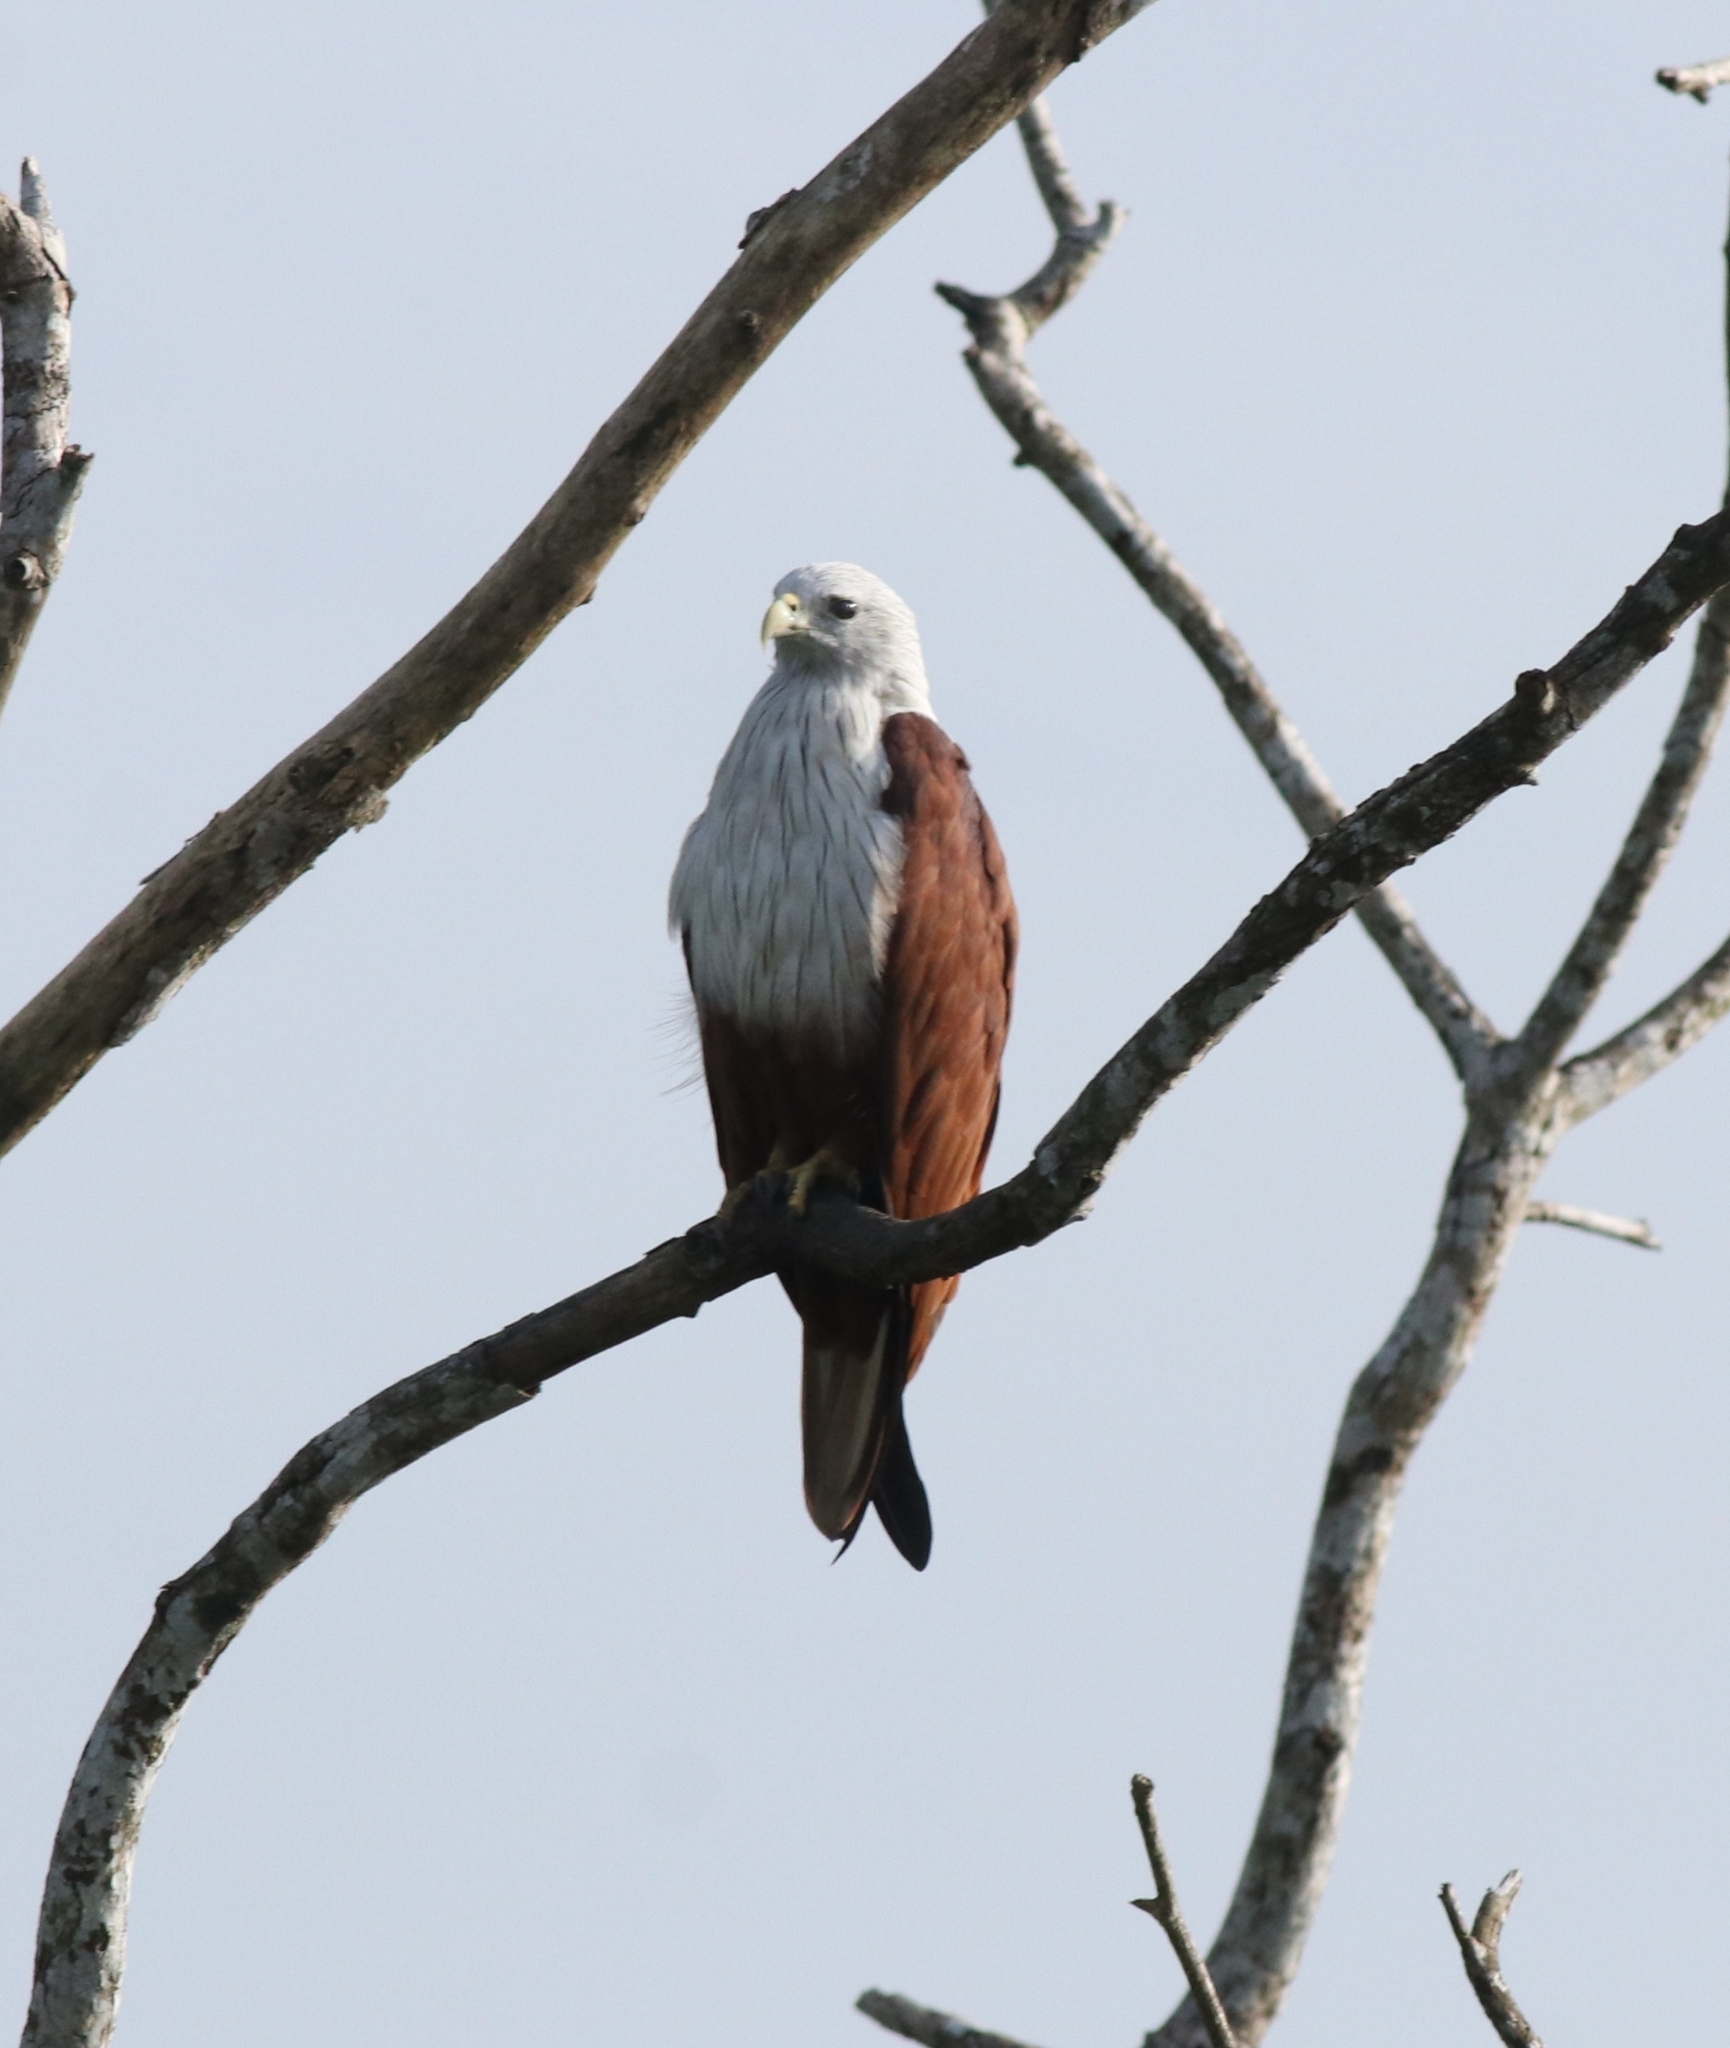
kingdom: Animalia
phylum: Chordata
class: Aves
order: Accipitriformes
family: Accipitridae
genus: Haliastur
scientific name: Haliastur indus
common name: Brahminy kite
